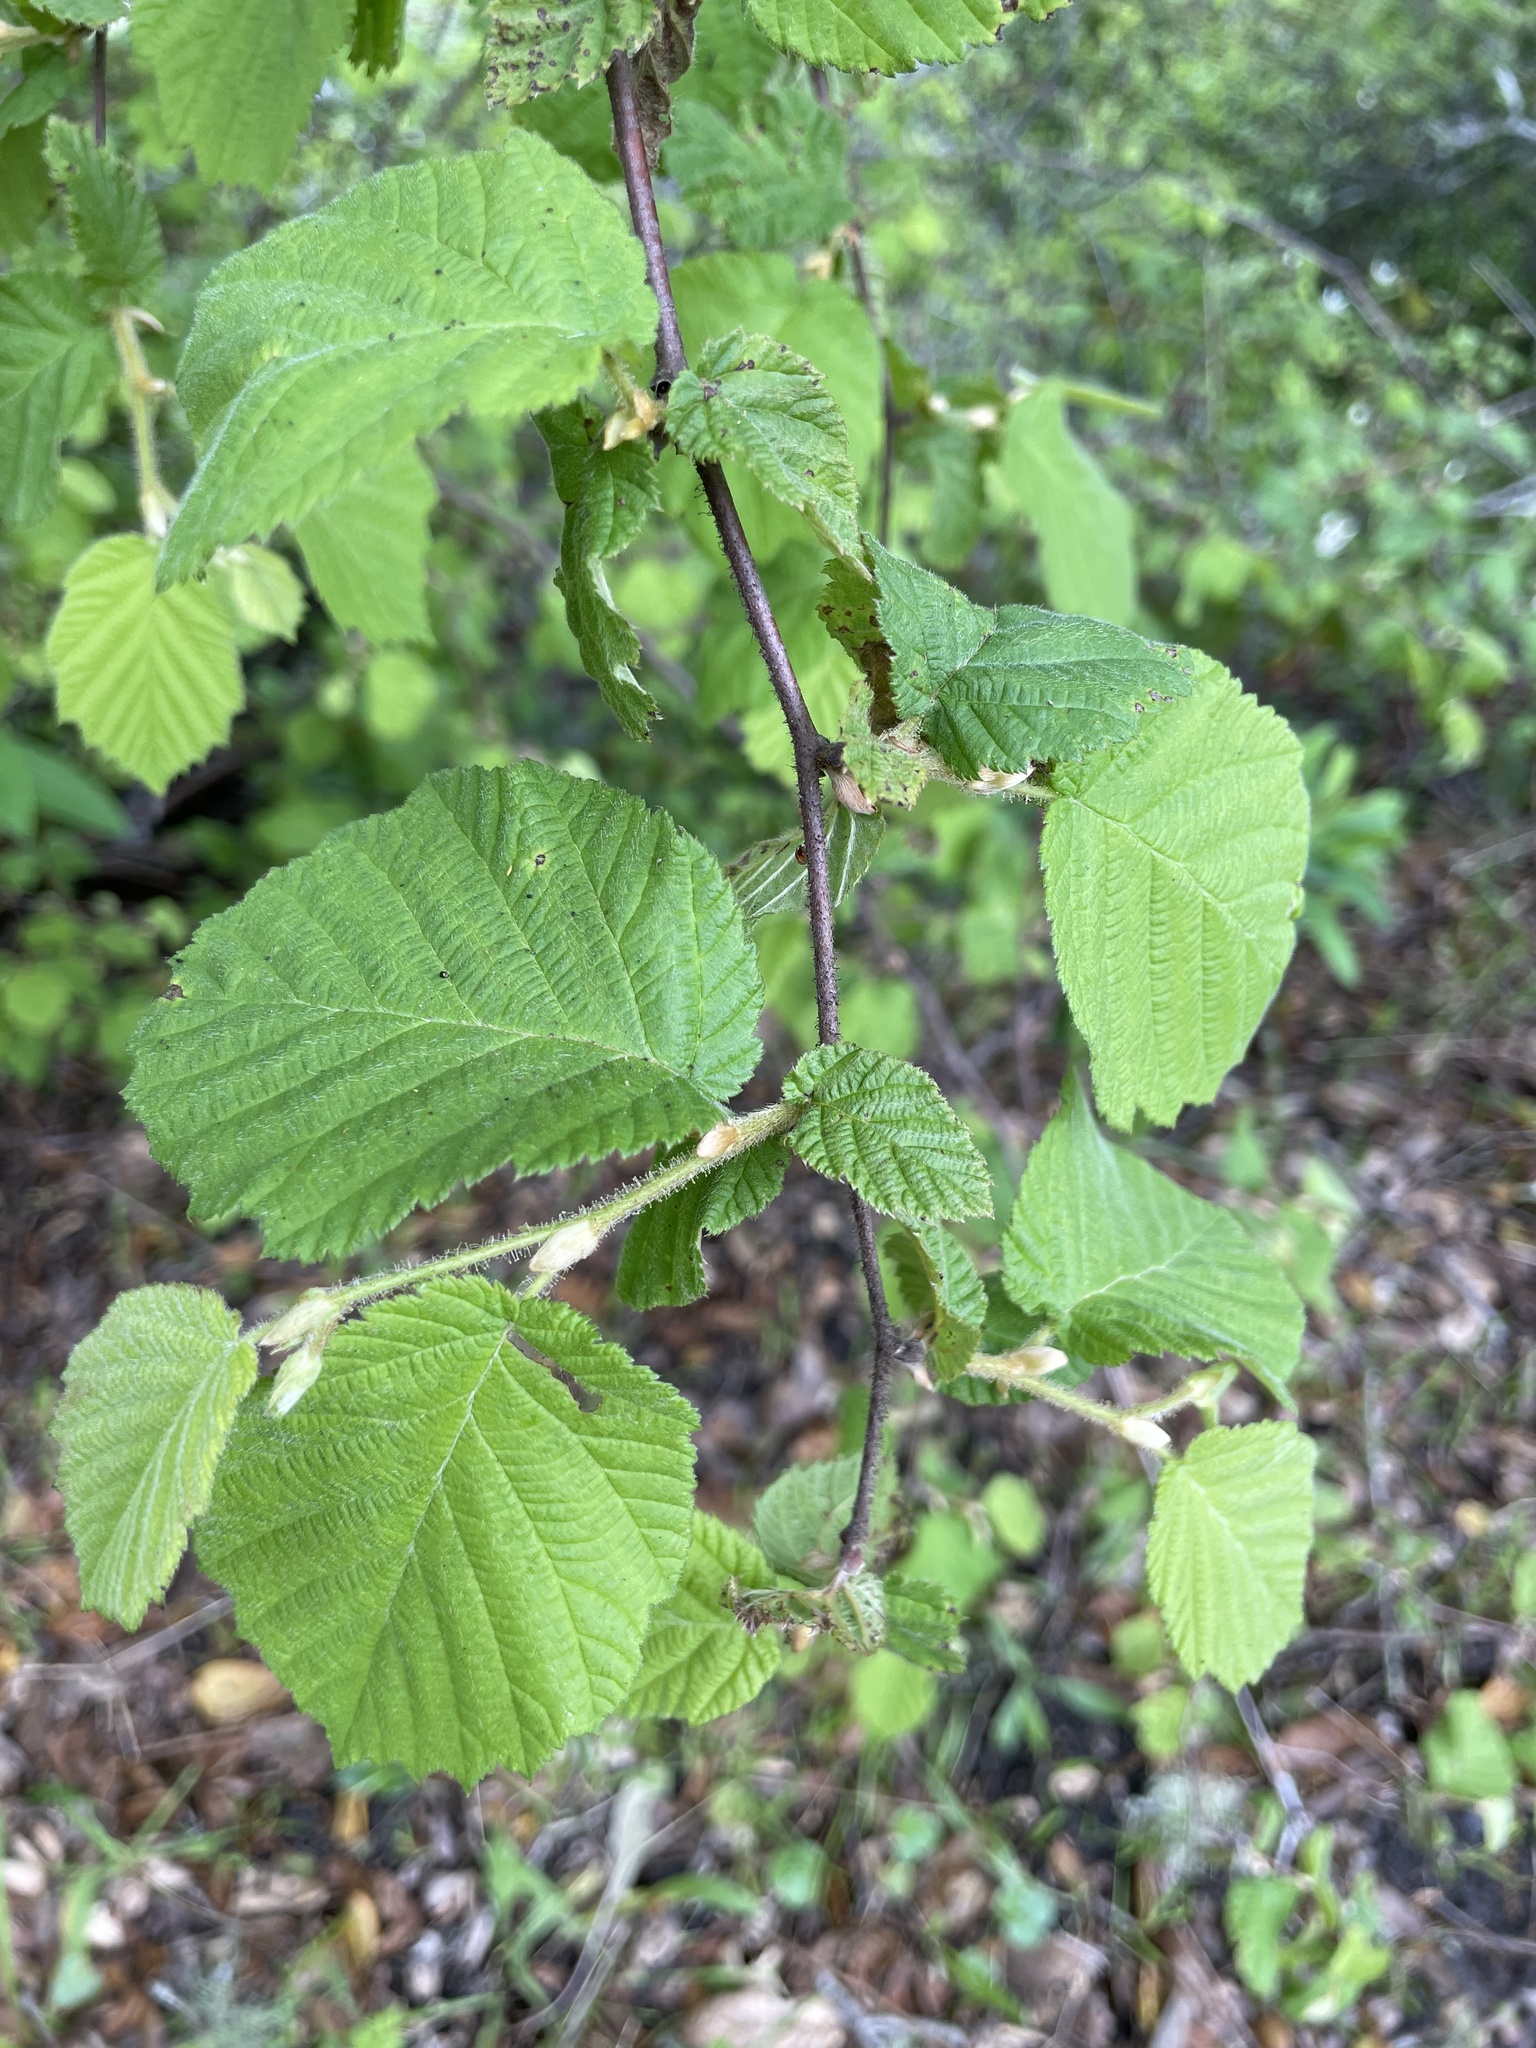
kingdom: Plantae
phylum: Tracheophyta
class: Magnoliopsida
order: Fagales
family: Betulaceae
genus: Corylus
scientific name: Corylus cornuta
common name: Beaked hazel
